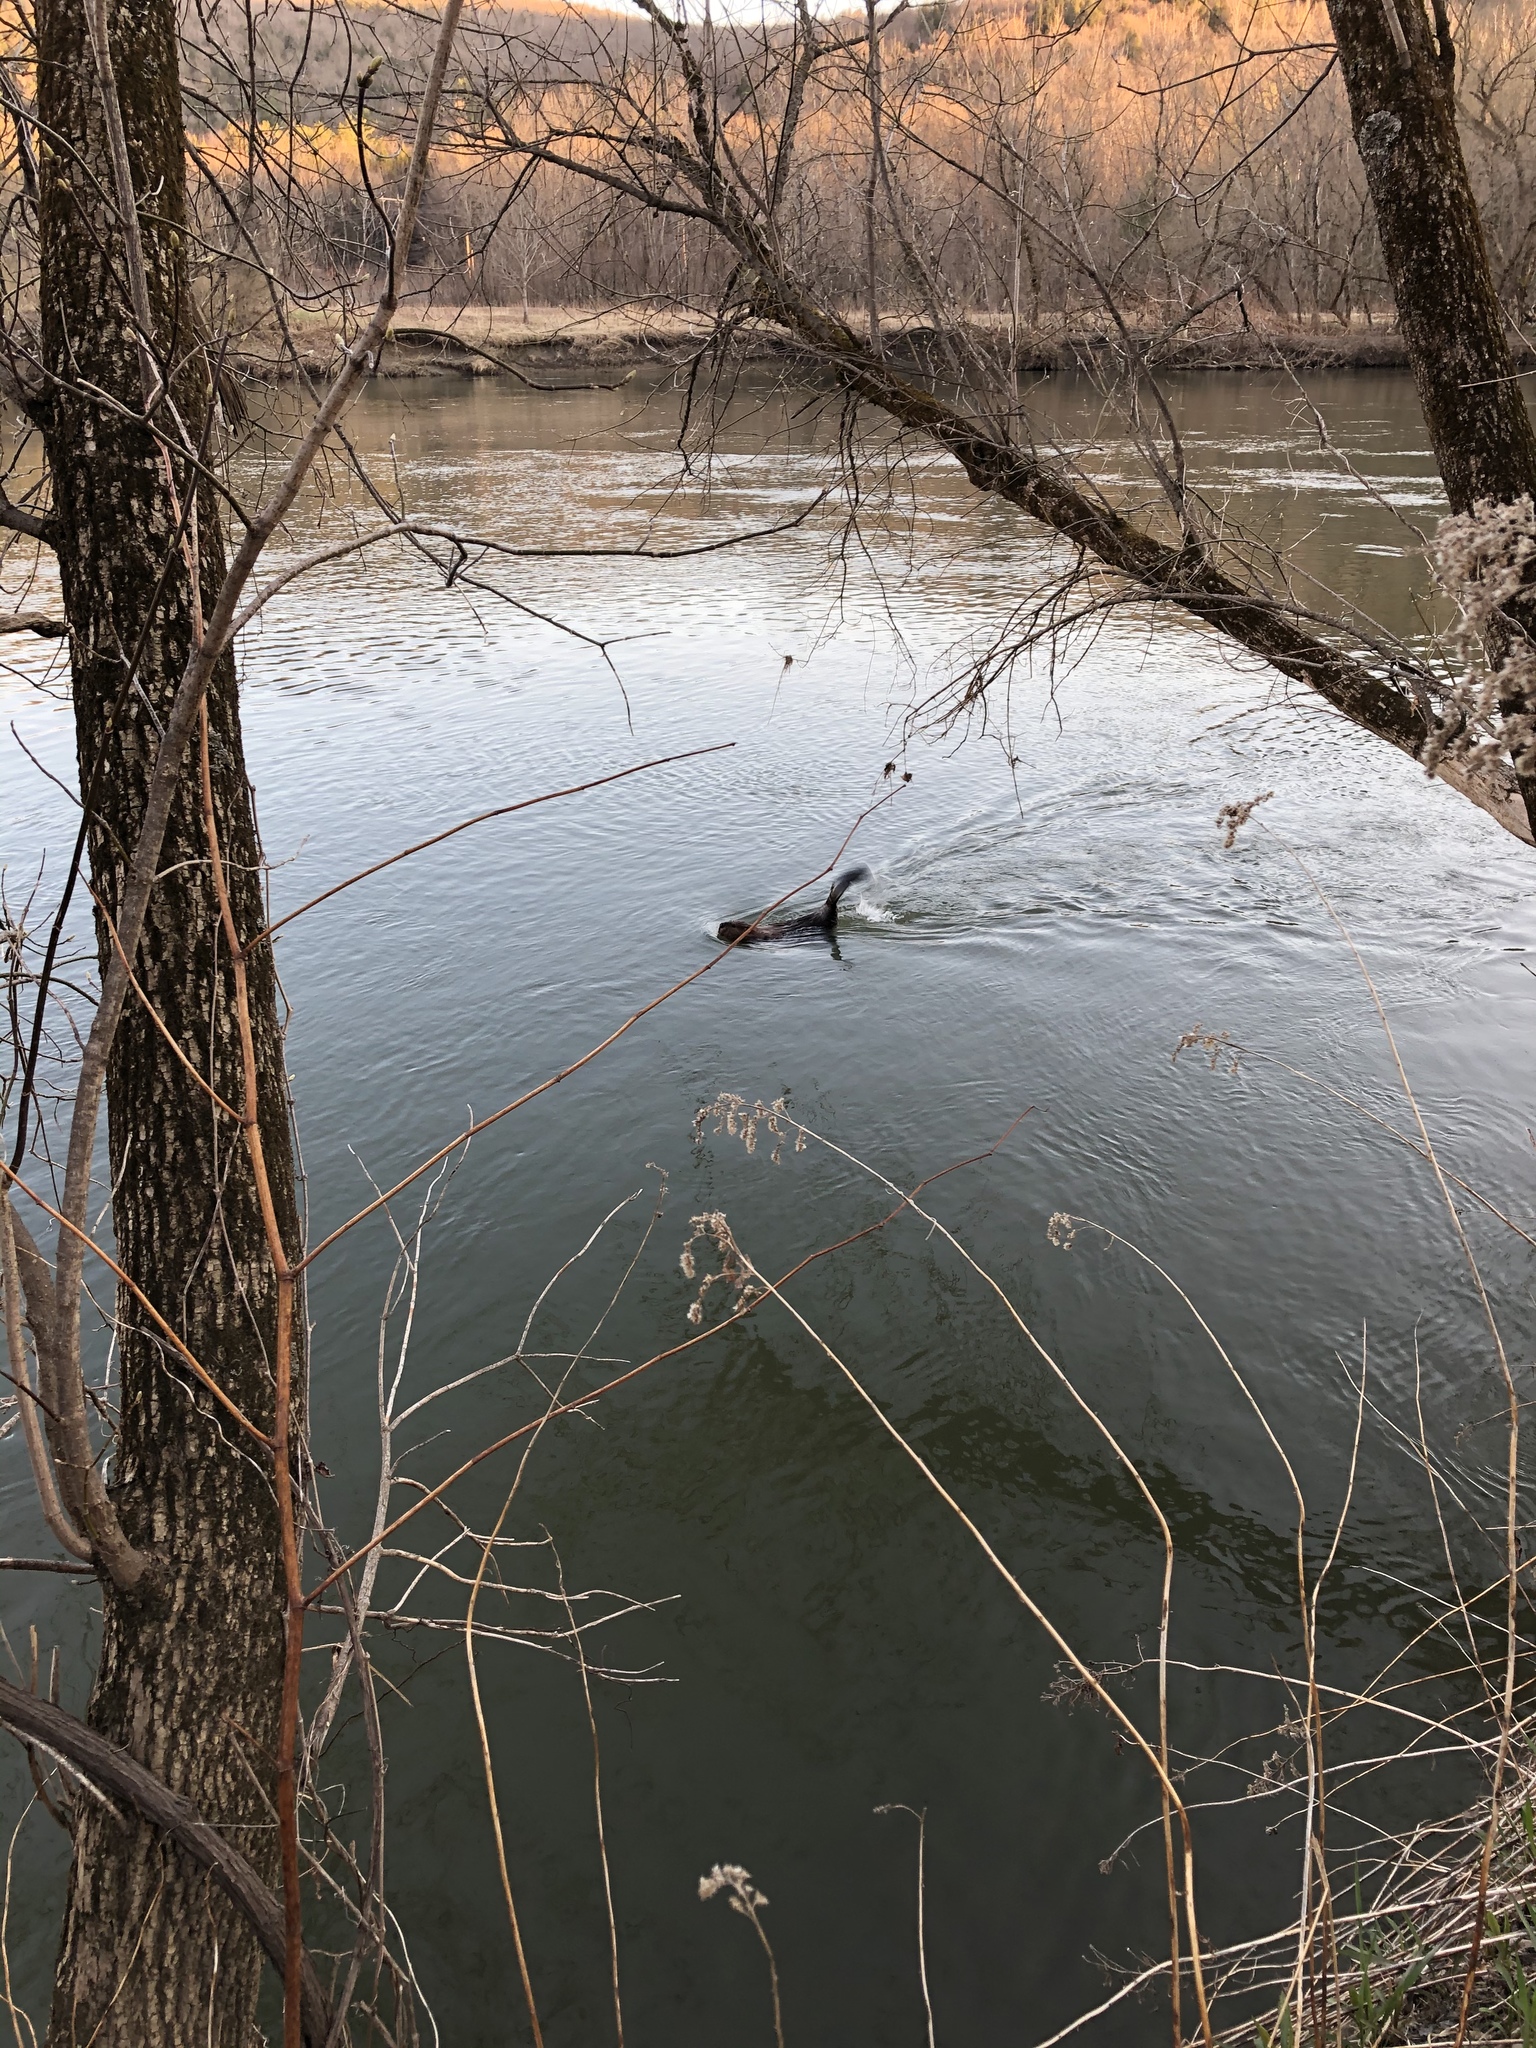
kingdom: Animalia
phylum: Chordata
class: Mammalia
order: Rodentia
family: Castoridae
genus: Castor
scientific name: Castor canadensis
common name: American beaver
